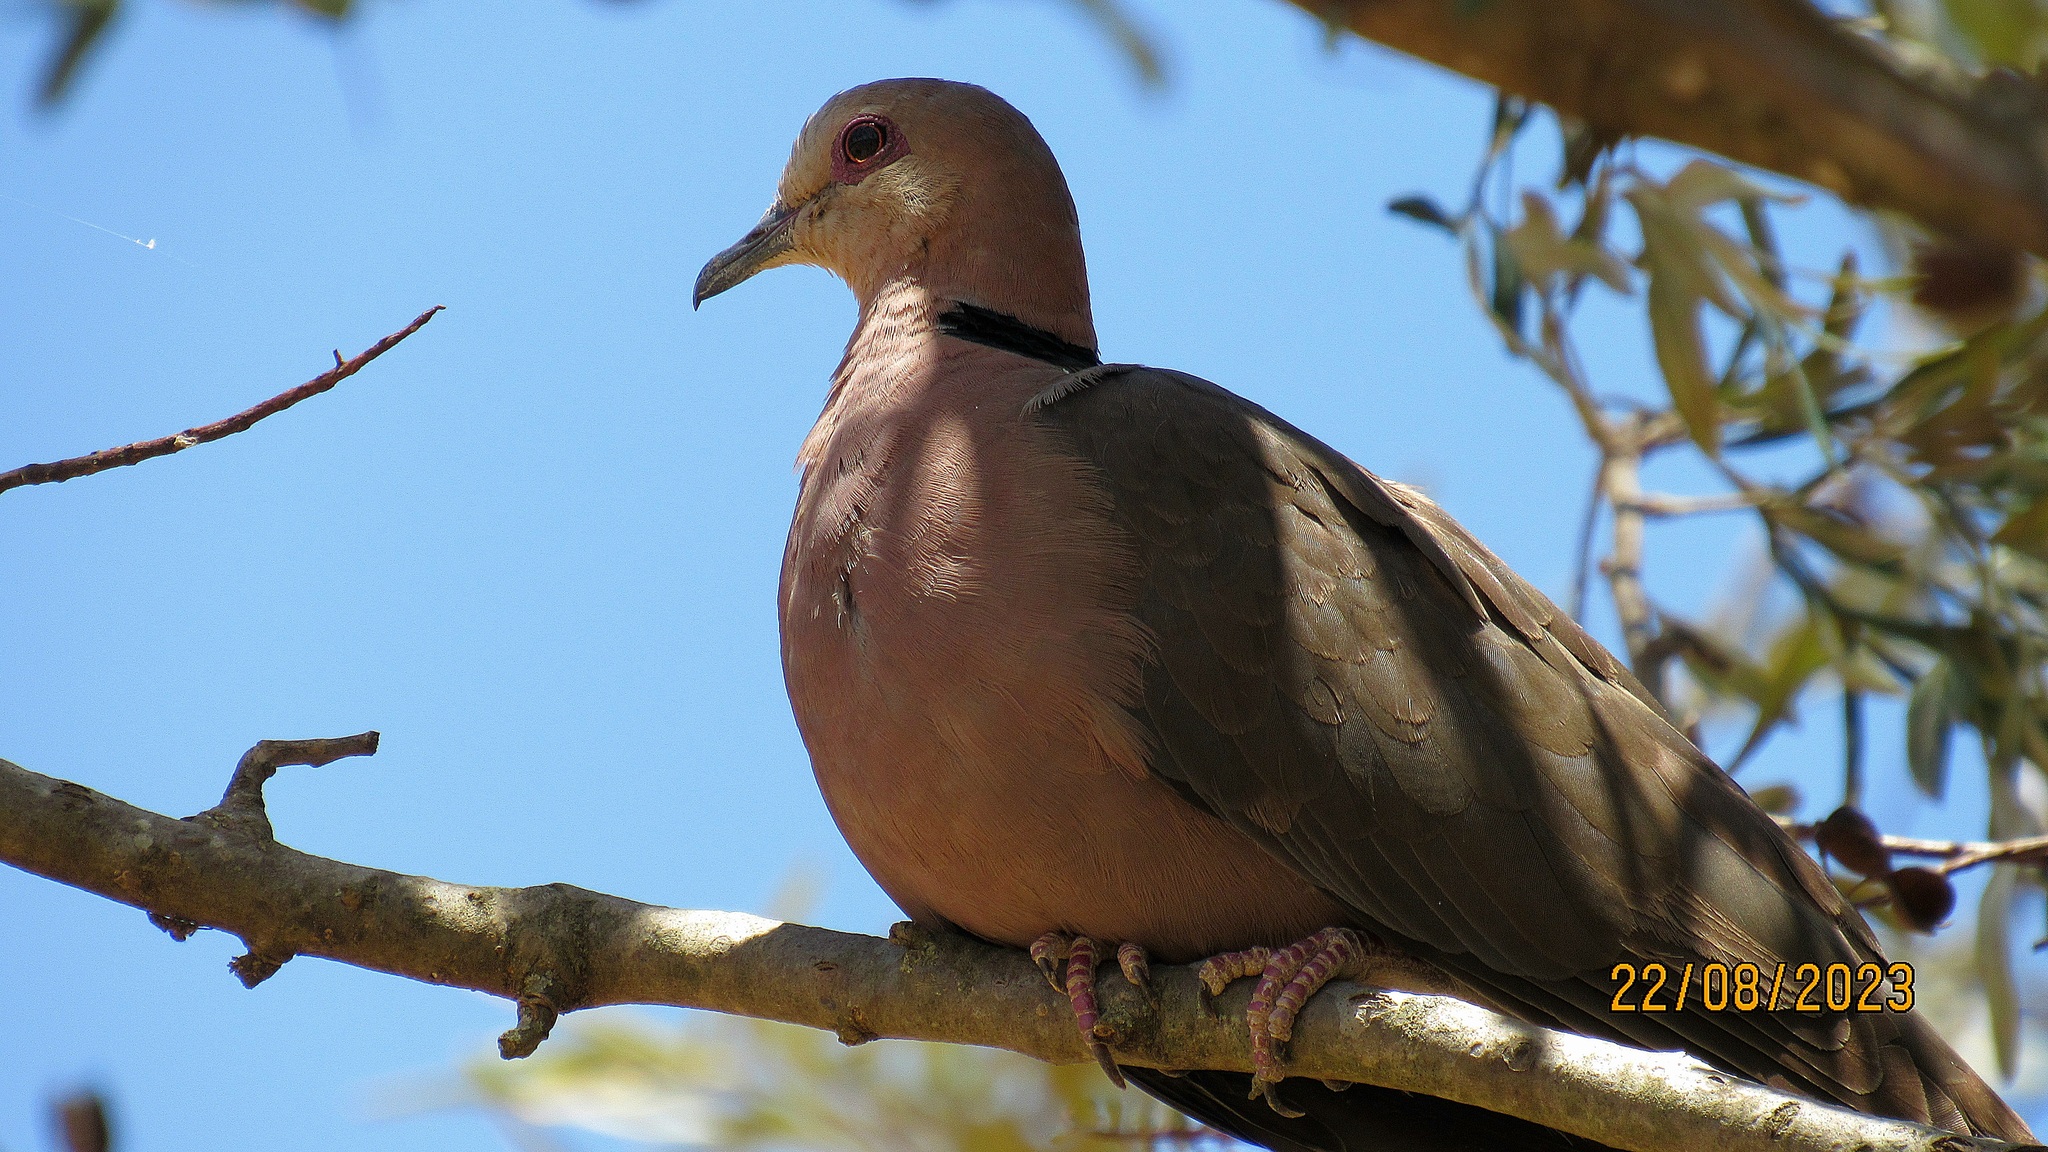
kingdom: Animalia
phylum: Chordata
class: Aves
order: Columbiformes
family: Columbidae
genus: Streptopelia
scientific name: Streptopelia semitorquata
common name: Red-eyed dove
